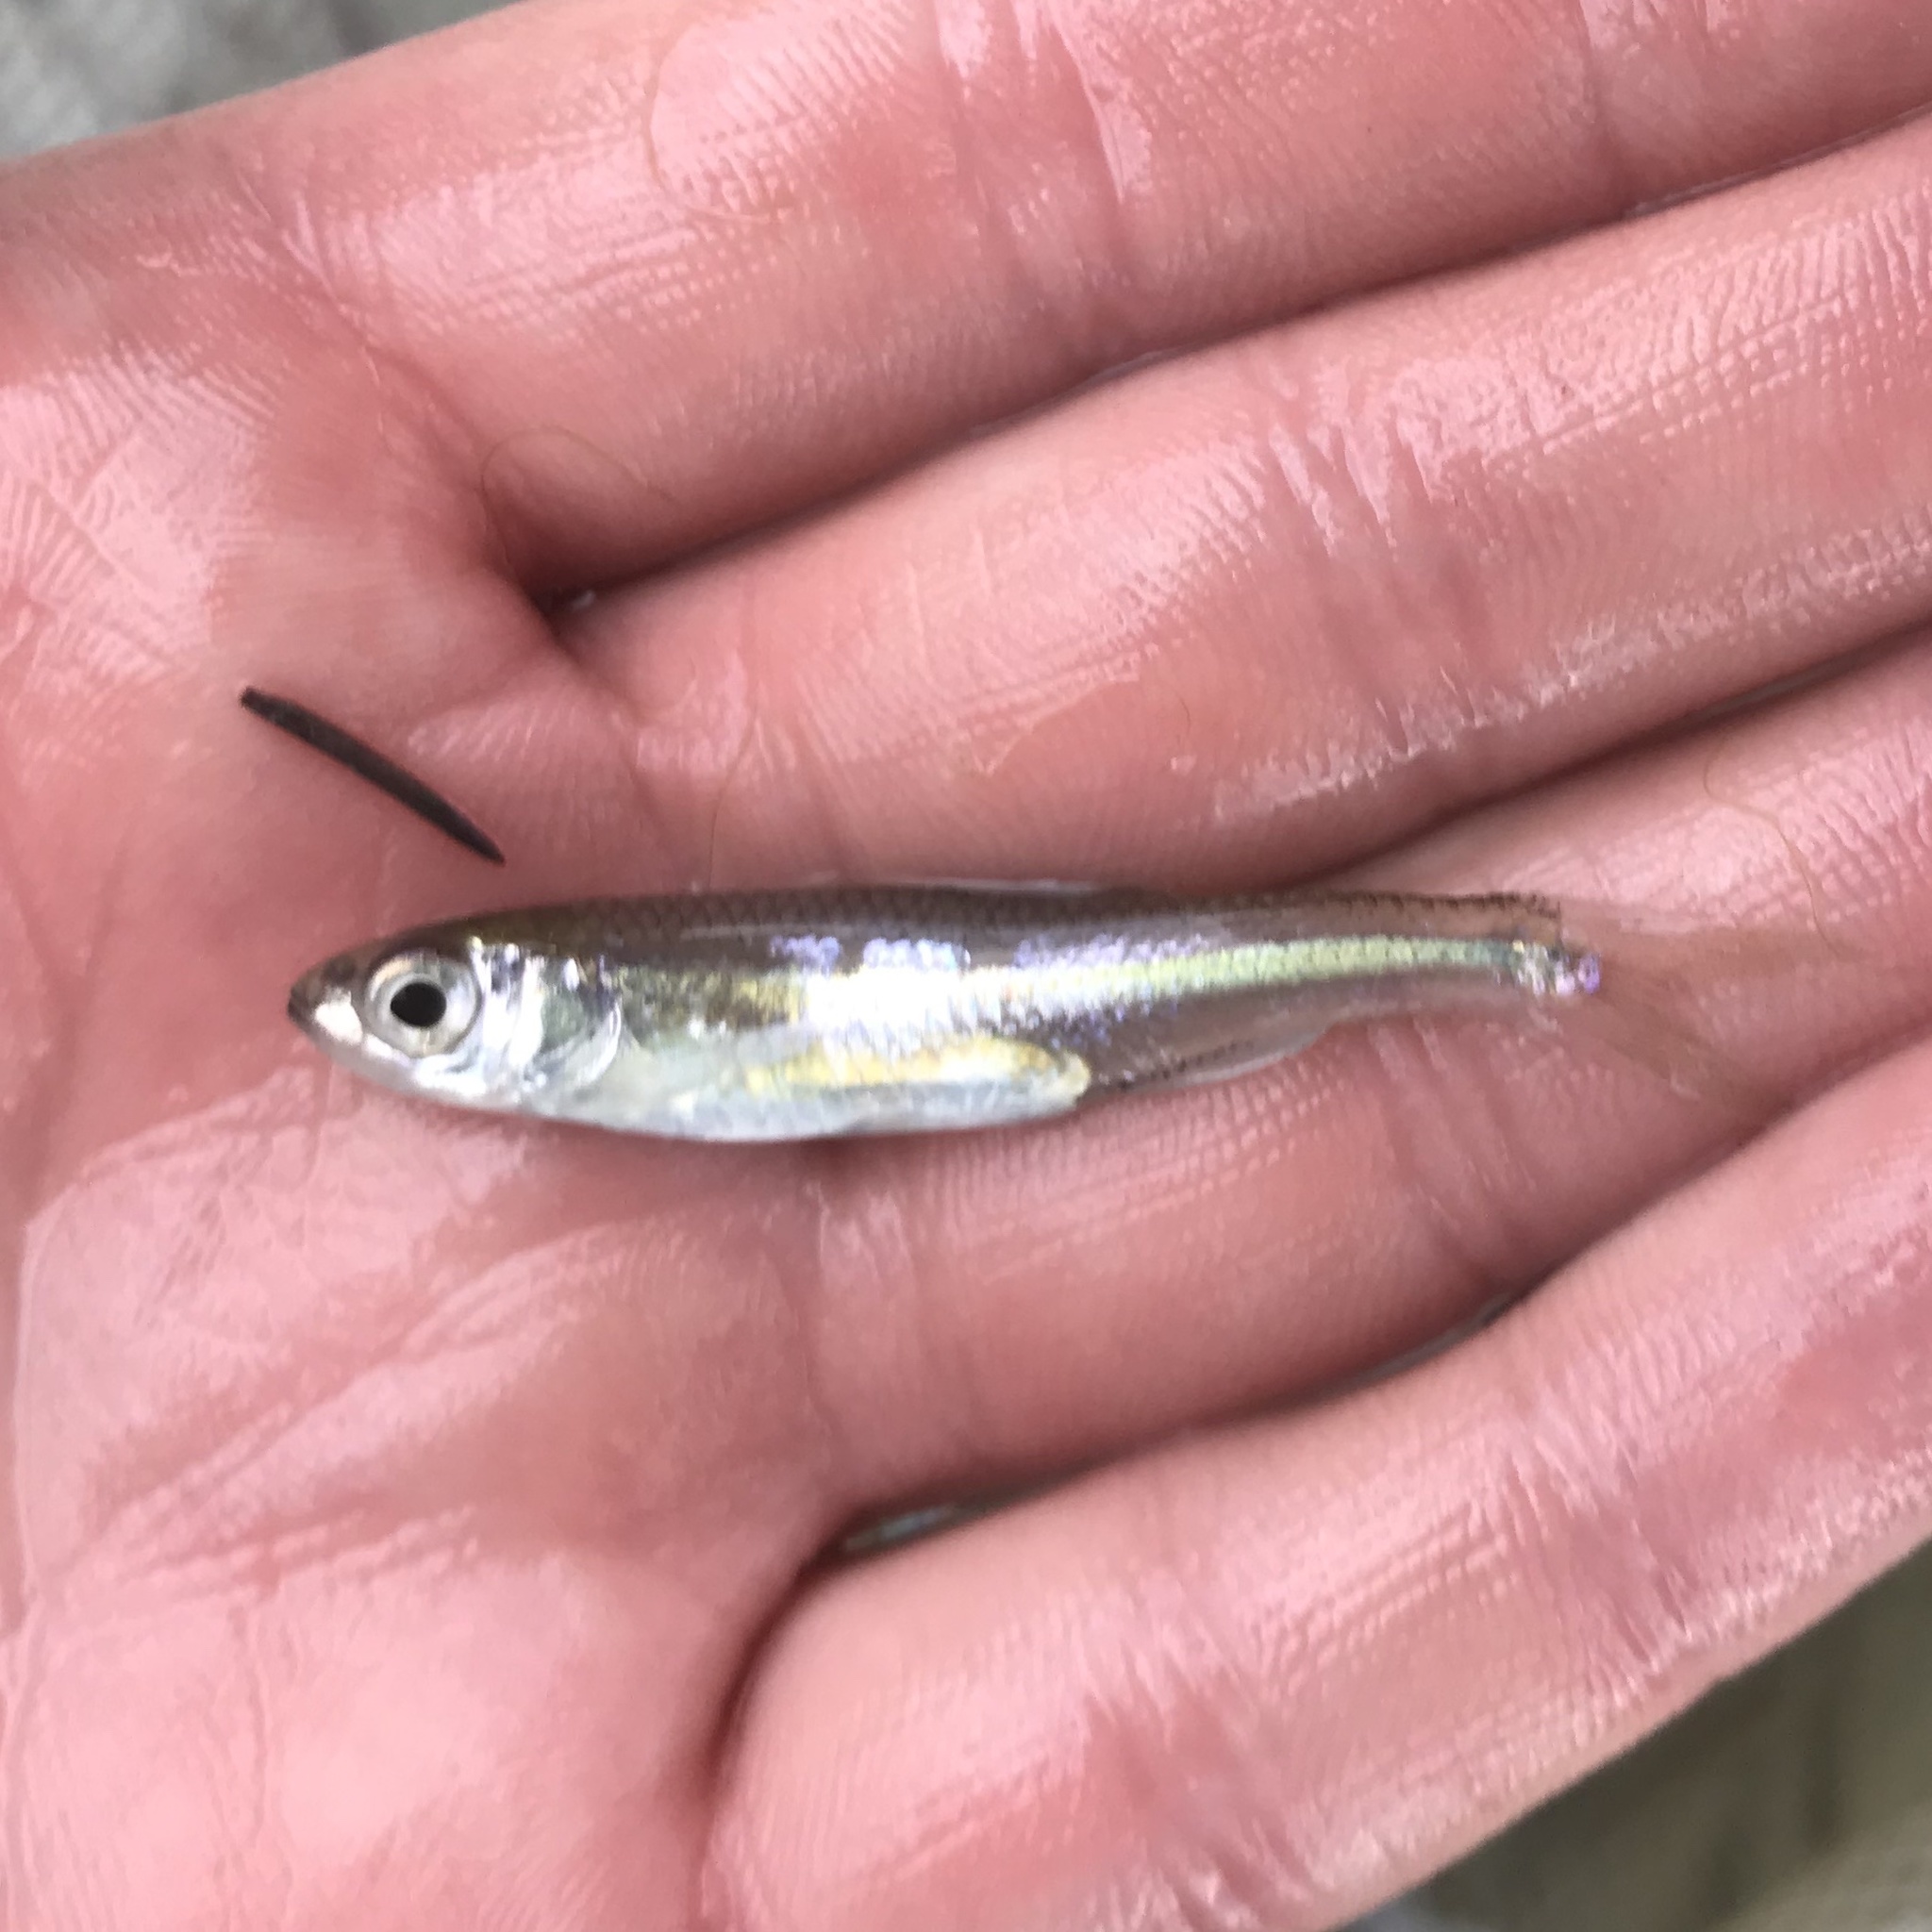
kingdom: Animalia
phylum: Chordata
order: Cypriniformes
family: Cyprinidae
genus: Notropis
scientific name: Notropis amabilis
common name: Texas shiner
